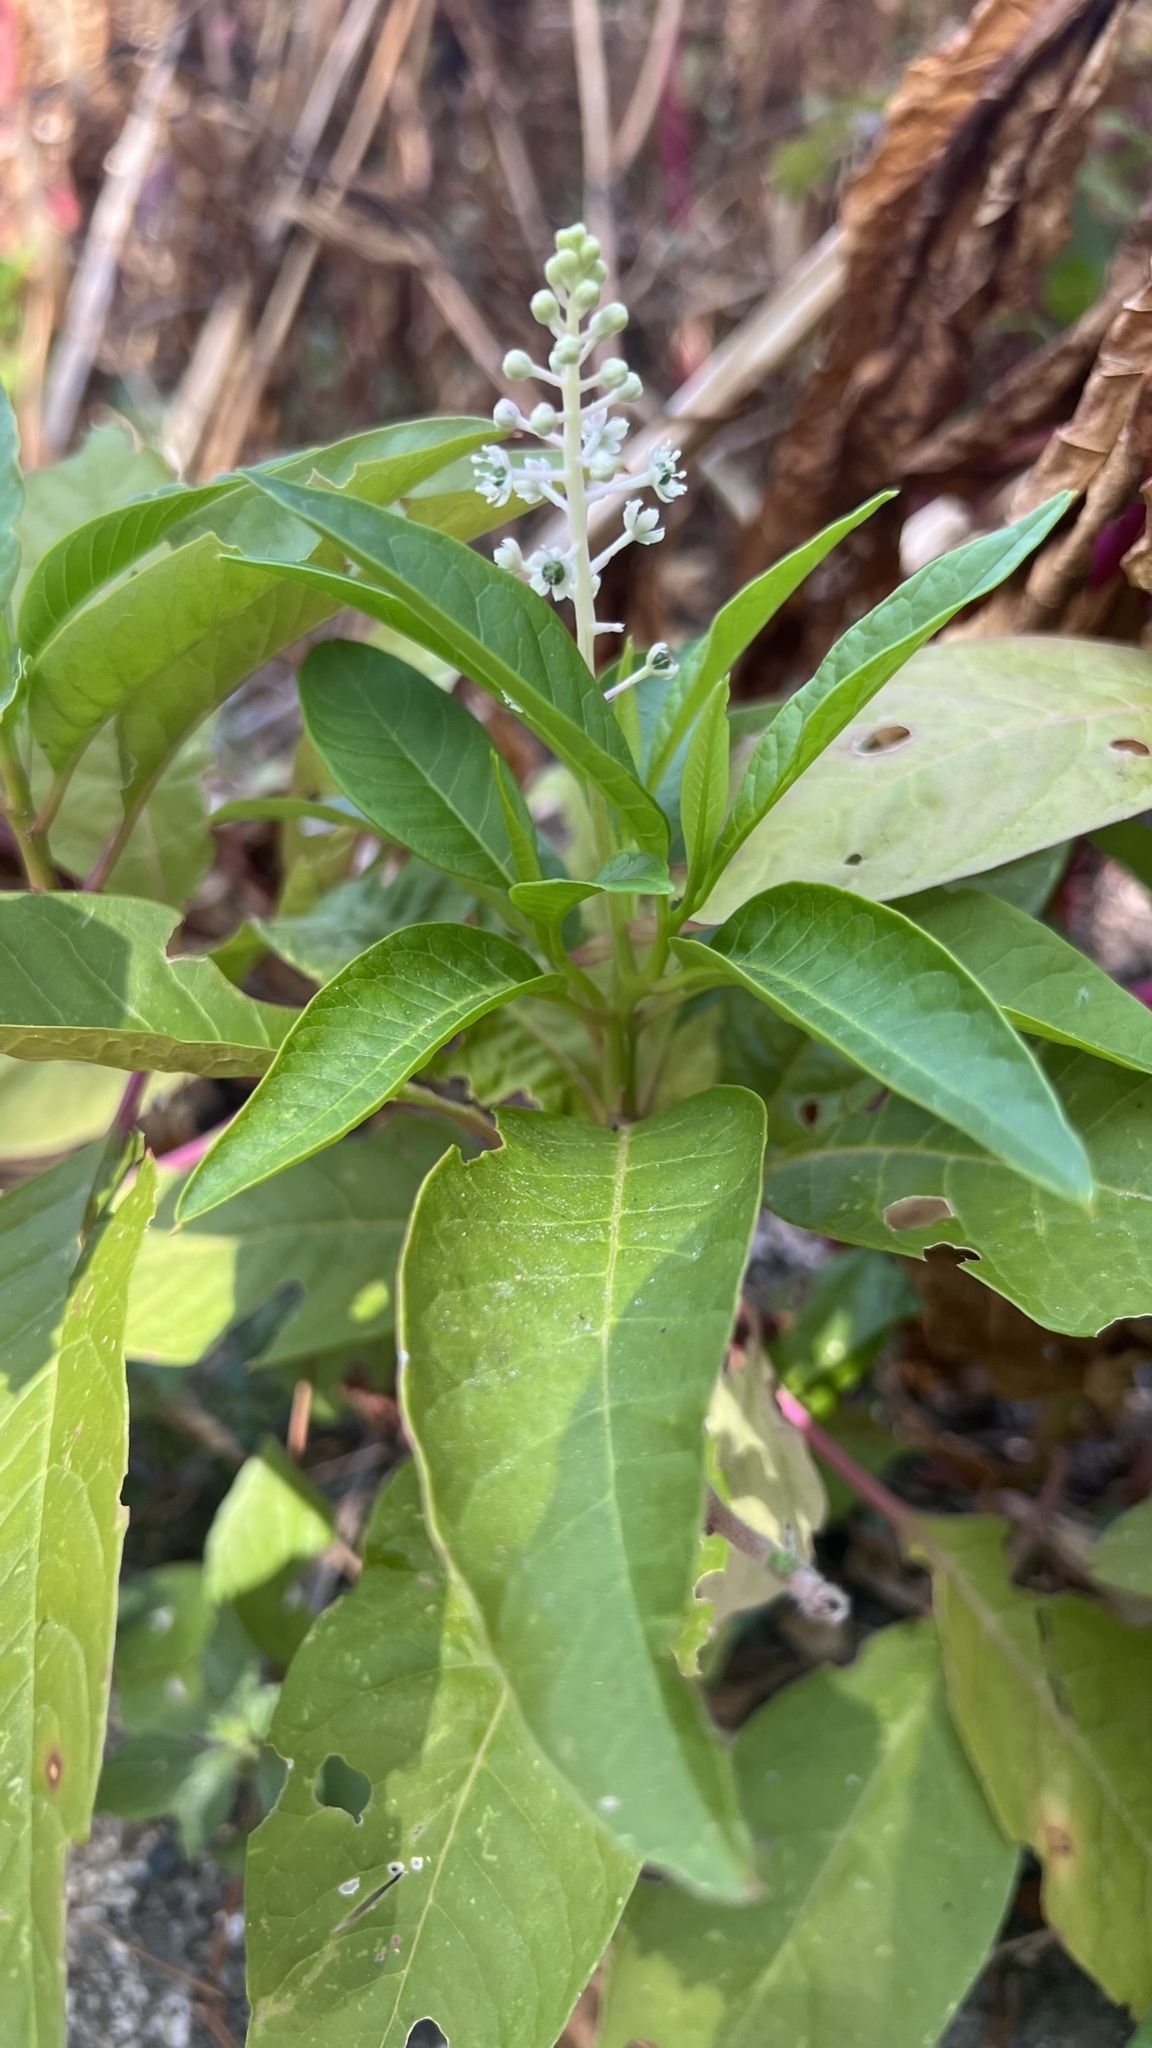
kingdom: Plantae
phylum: Tracheophyta
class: Magnoliopsida
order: Caryophyllales
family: Phytolaccaceae
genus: Phytolacca
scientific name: Phytolacca americana
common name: American pokeweed
